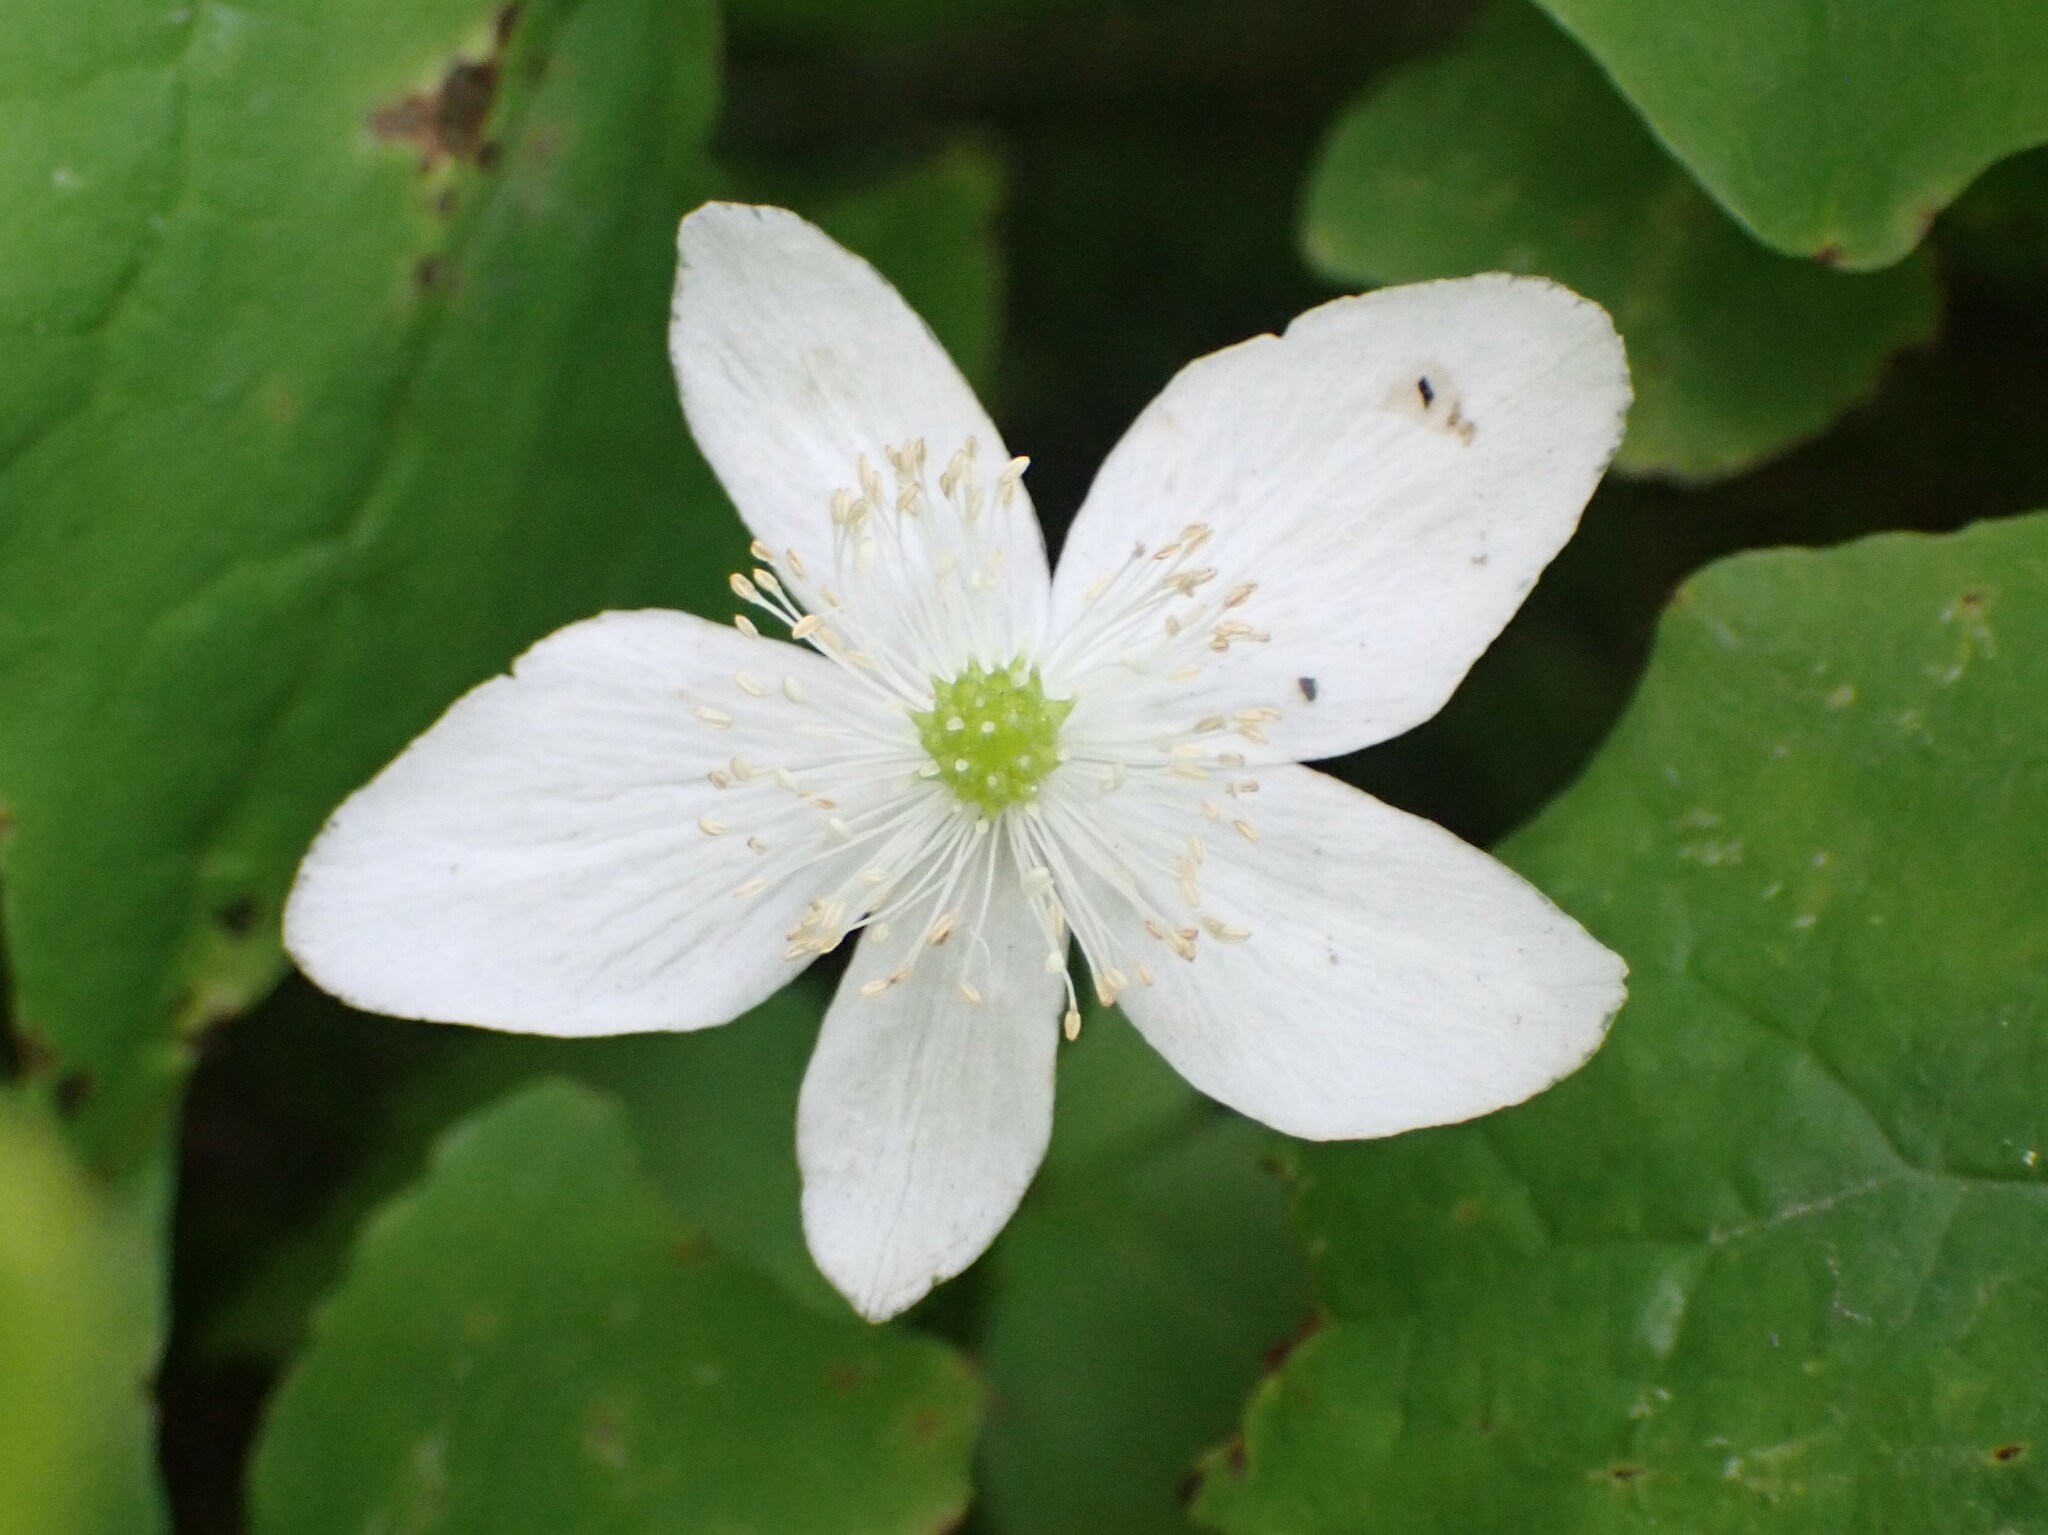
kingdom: Plantae
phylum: Tracheophyta
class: Magnoliopsida
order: Ranunculales
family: Ranunculaceae
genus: Anemonastrum
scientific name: Anemonastrum deltoideum
